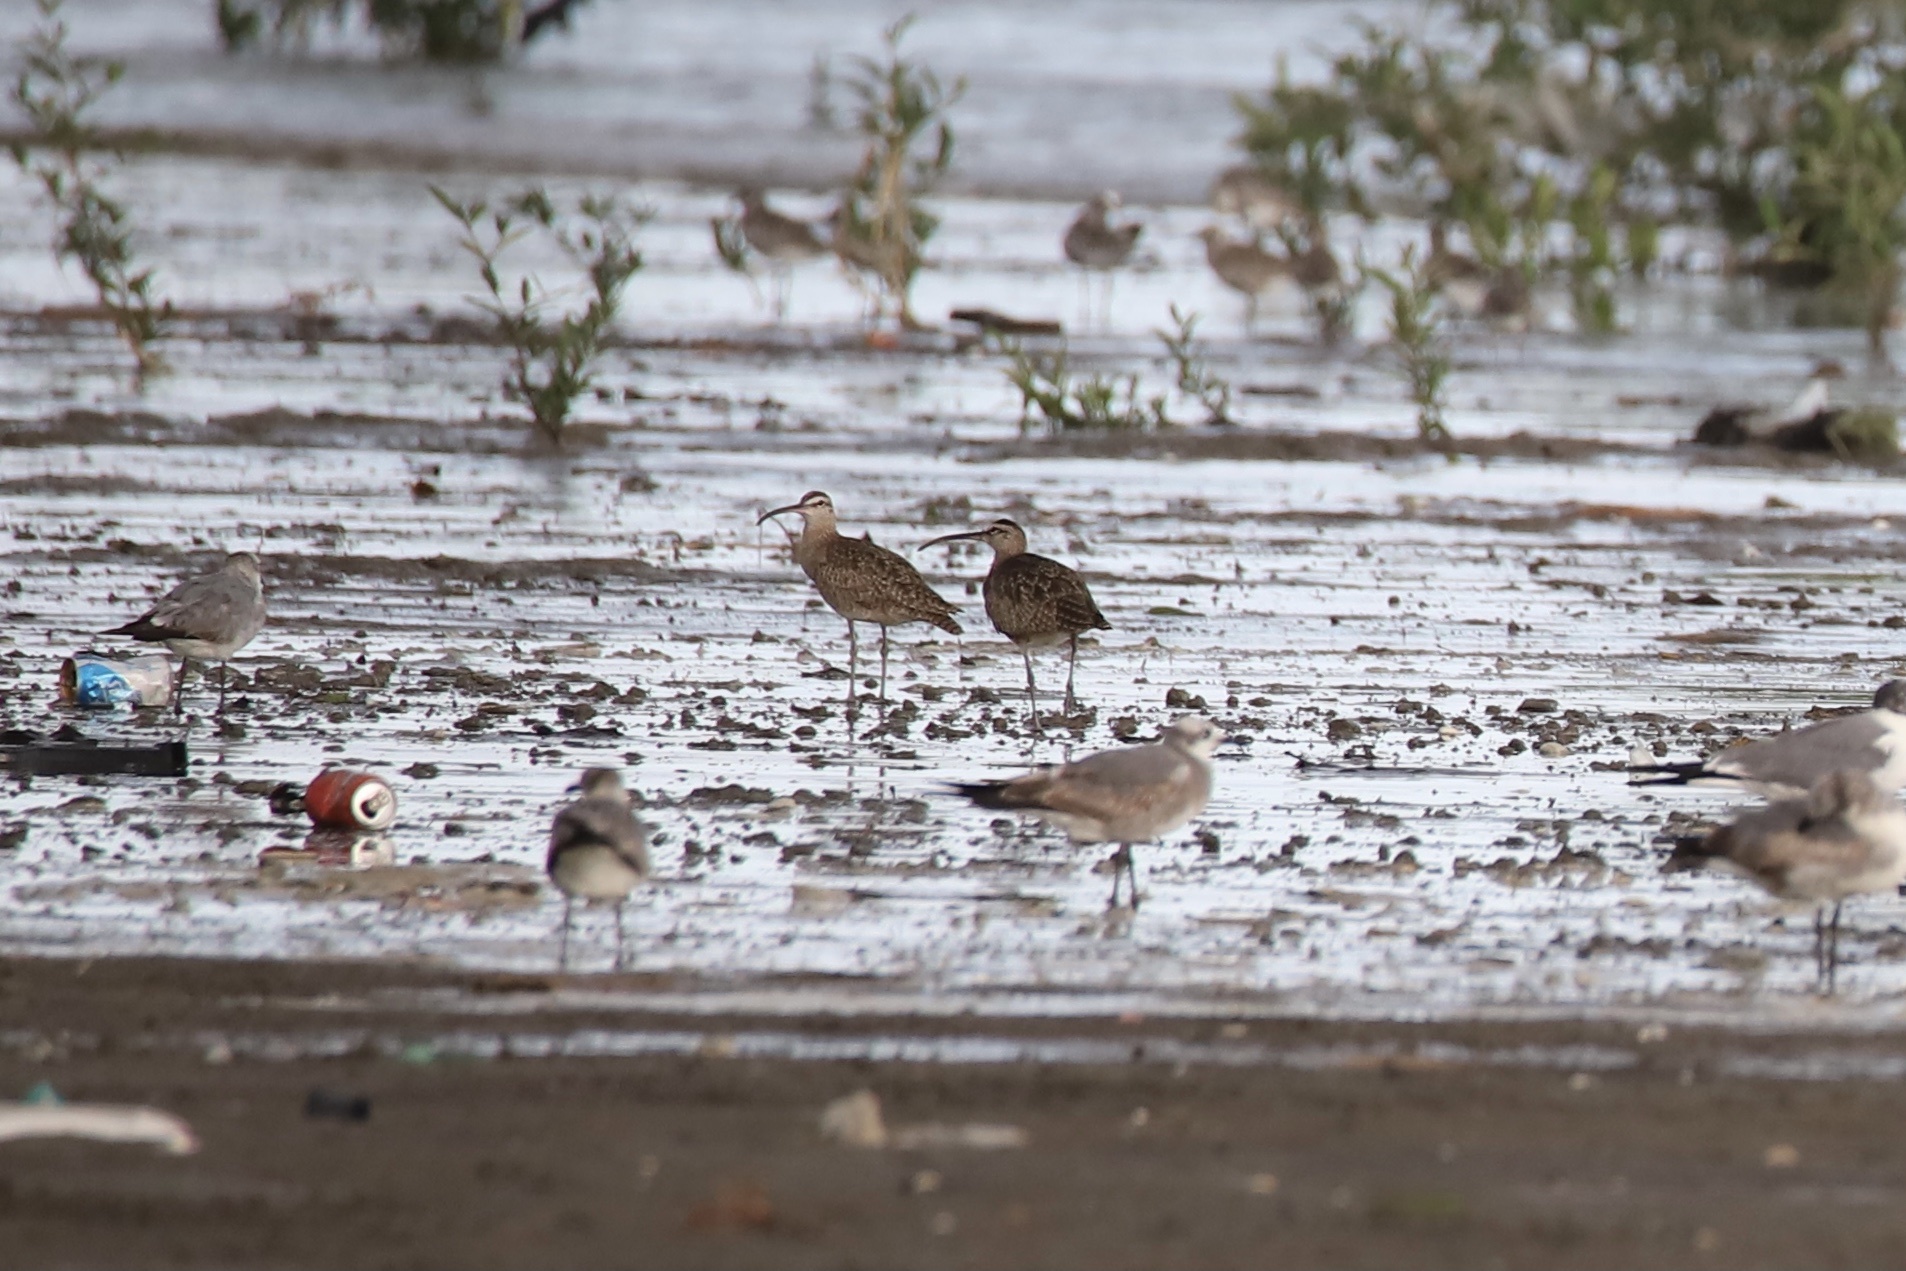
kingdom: Animalia
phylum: Chordata
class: Aves
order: Charadriiformes
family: Scolopacidae
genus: Numenius
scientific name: Numenius phaeopus
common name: Whimbrel
